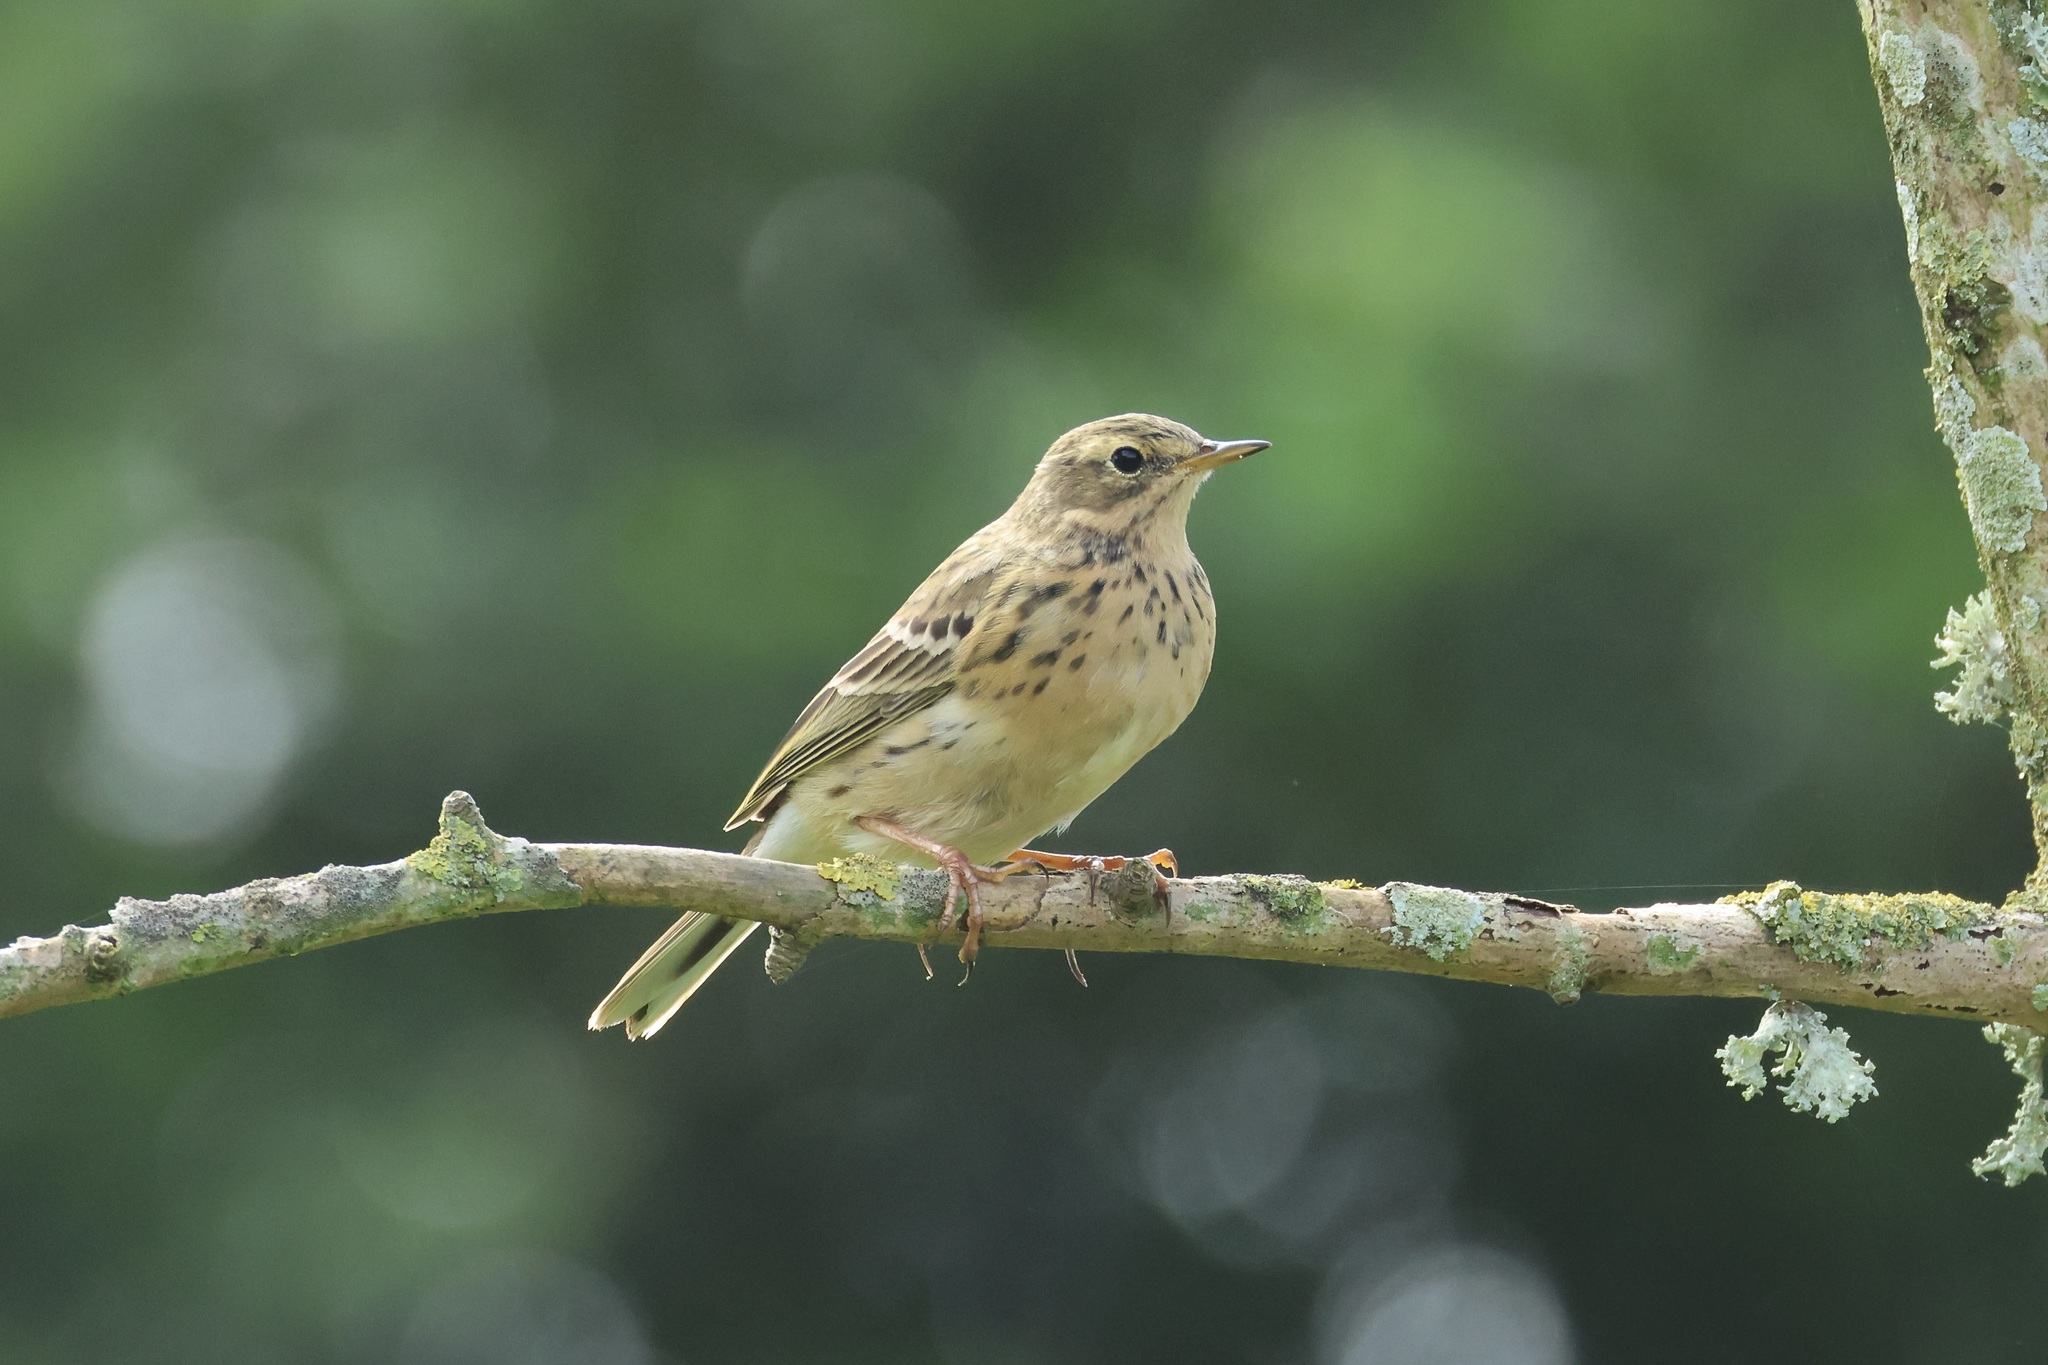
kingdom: Animalia
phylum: Chordata
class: Aves
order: Passeriformes
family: Motacillidae
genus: Anthus
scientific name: Anthus pratensis
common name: Meadow pipit
